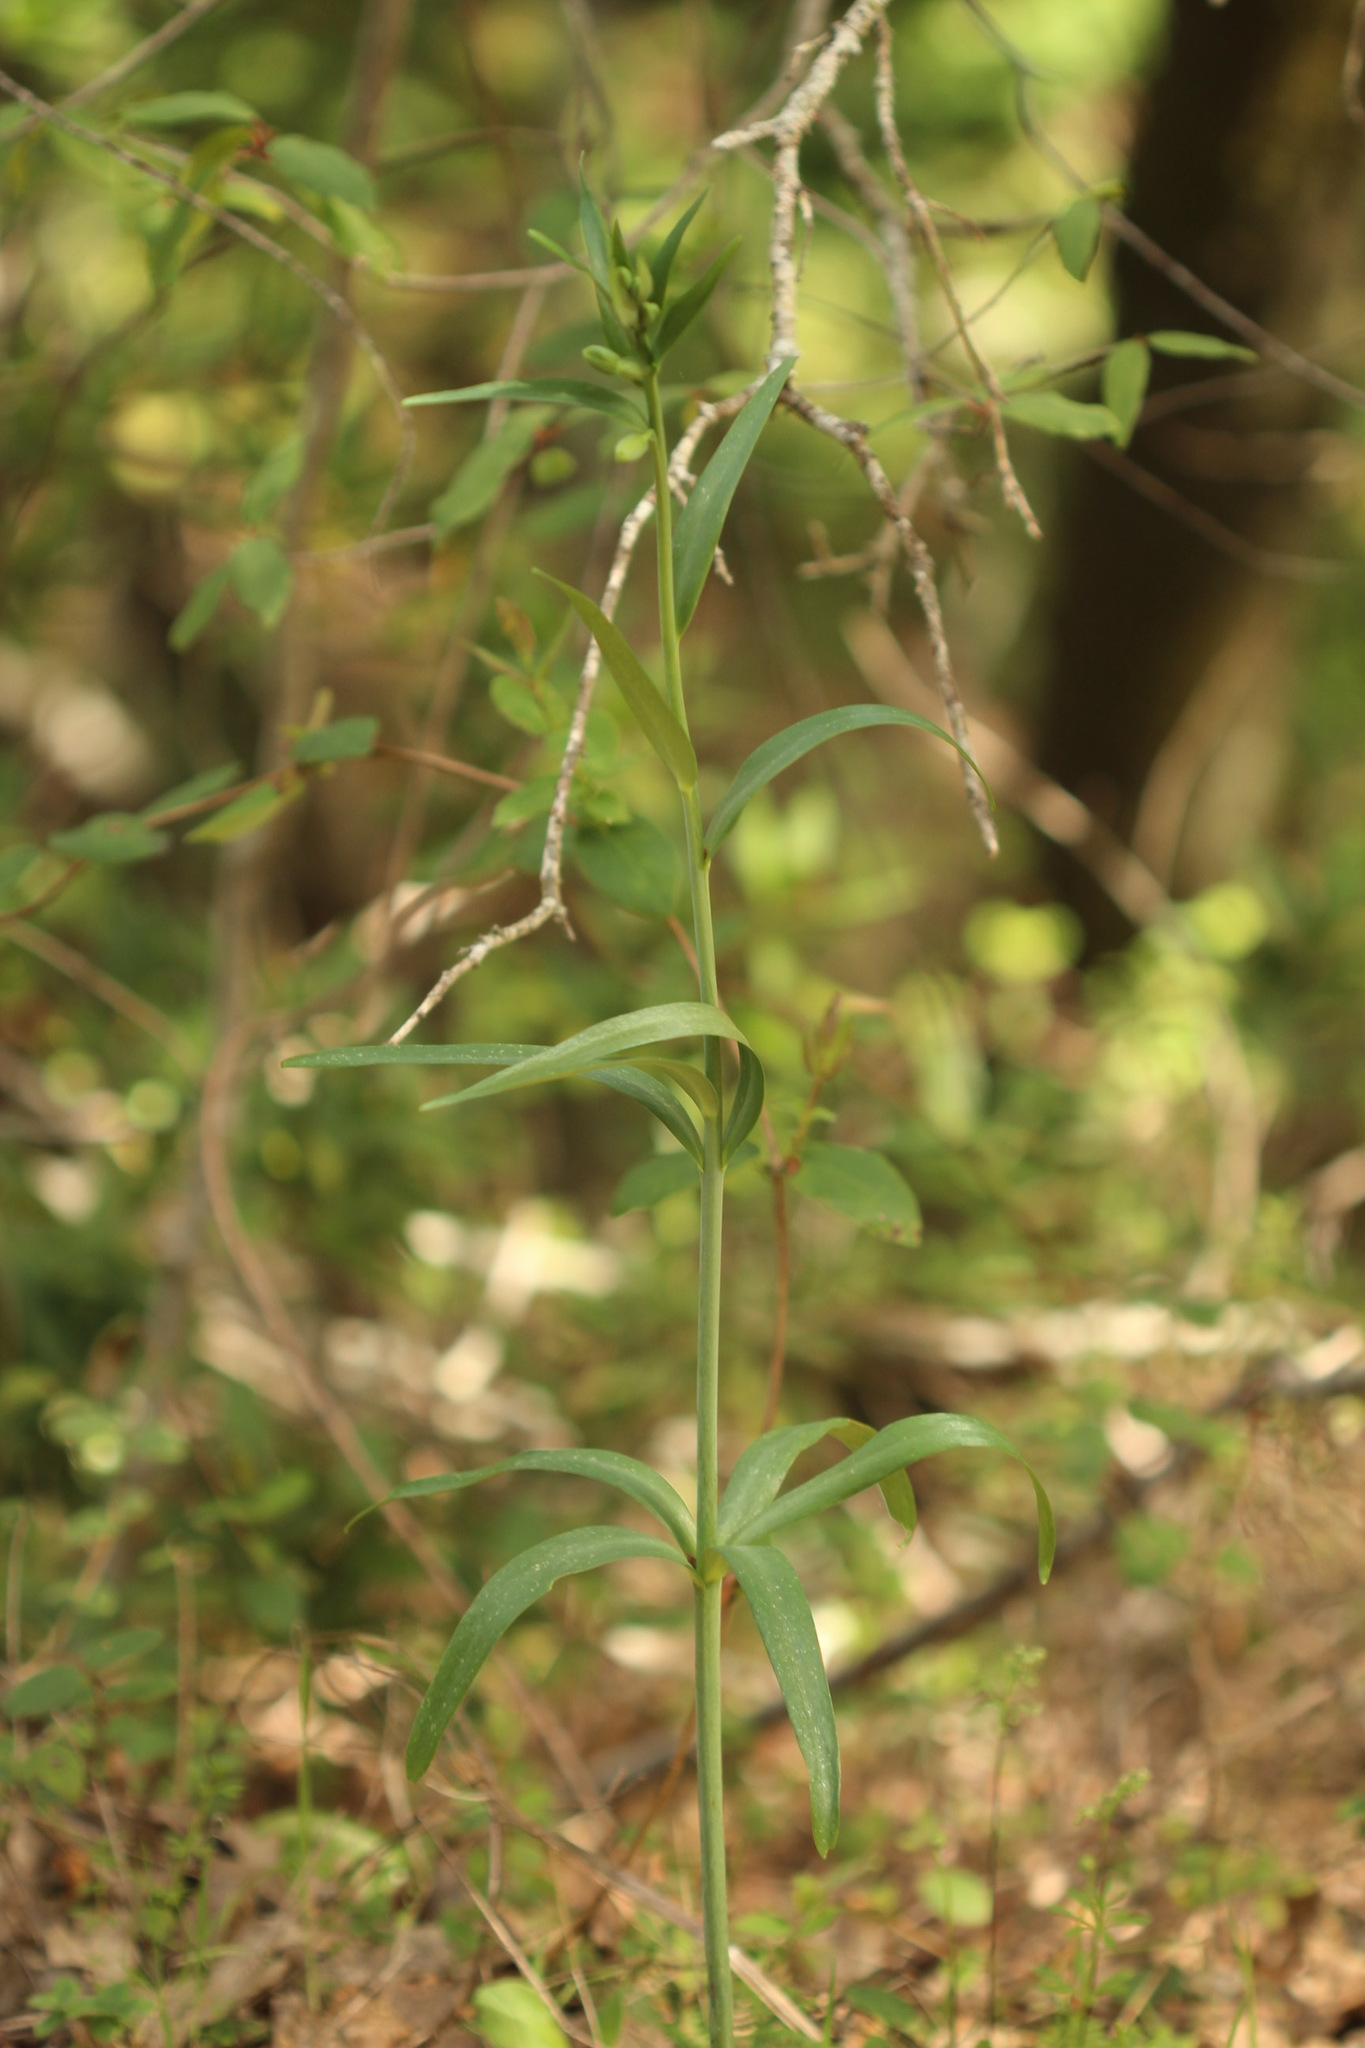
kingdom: Plantae
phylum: Tracheophyta
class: Liliopsida
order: Liliales
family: Liliaceae
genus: Fritillaria
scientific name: Fritillaria affinis
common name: Ojai fritillary
